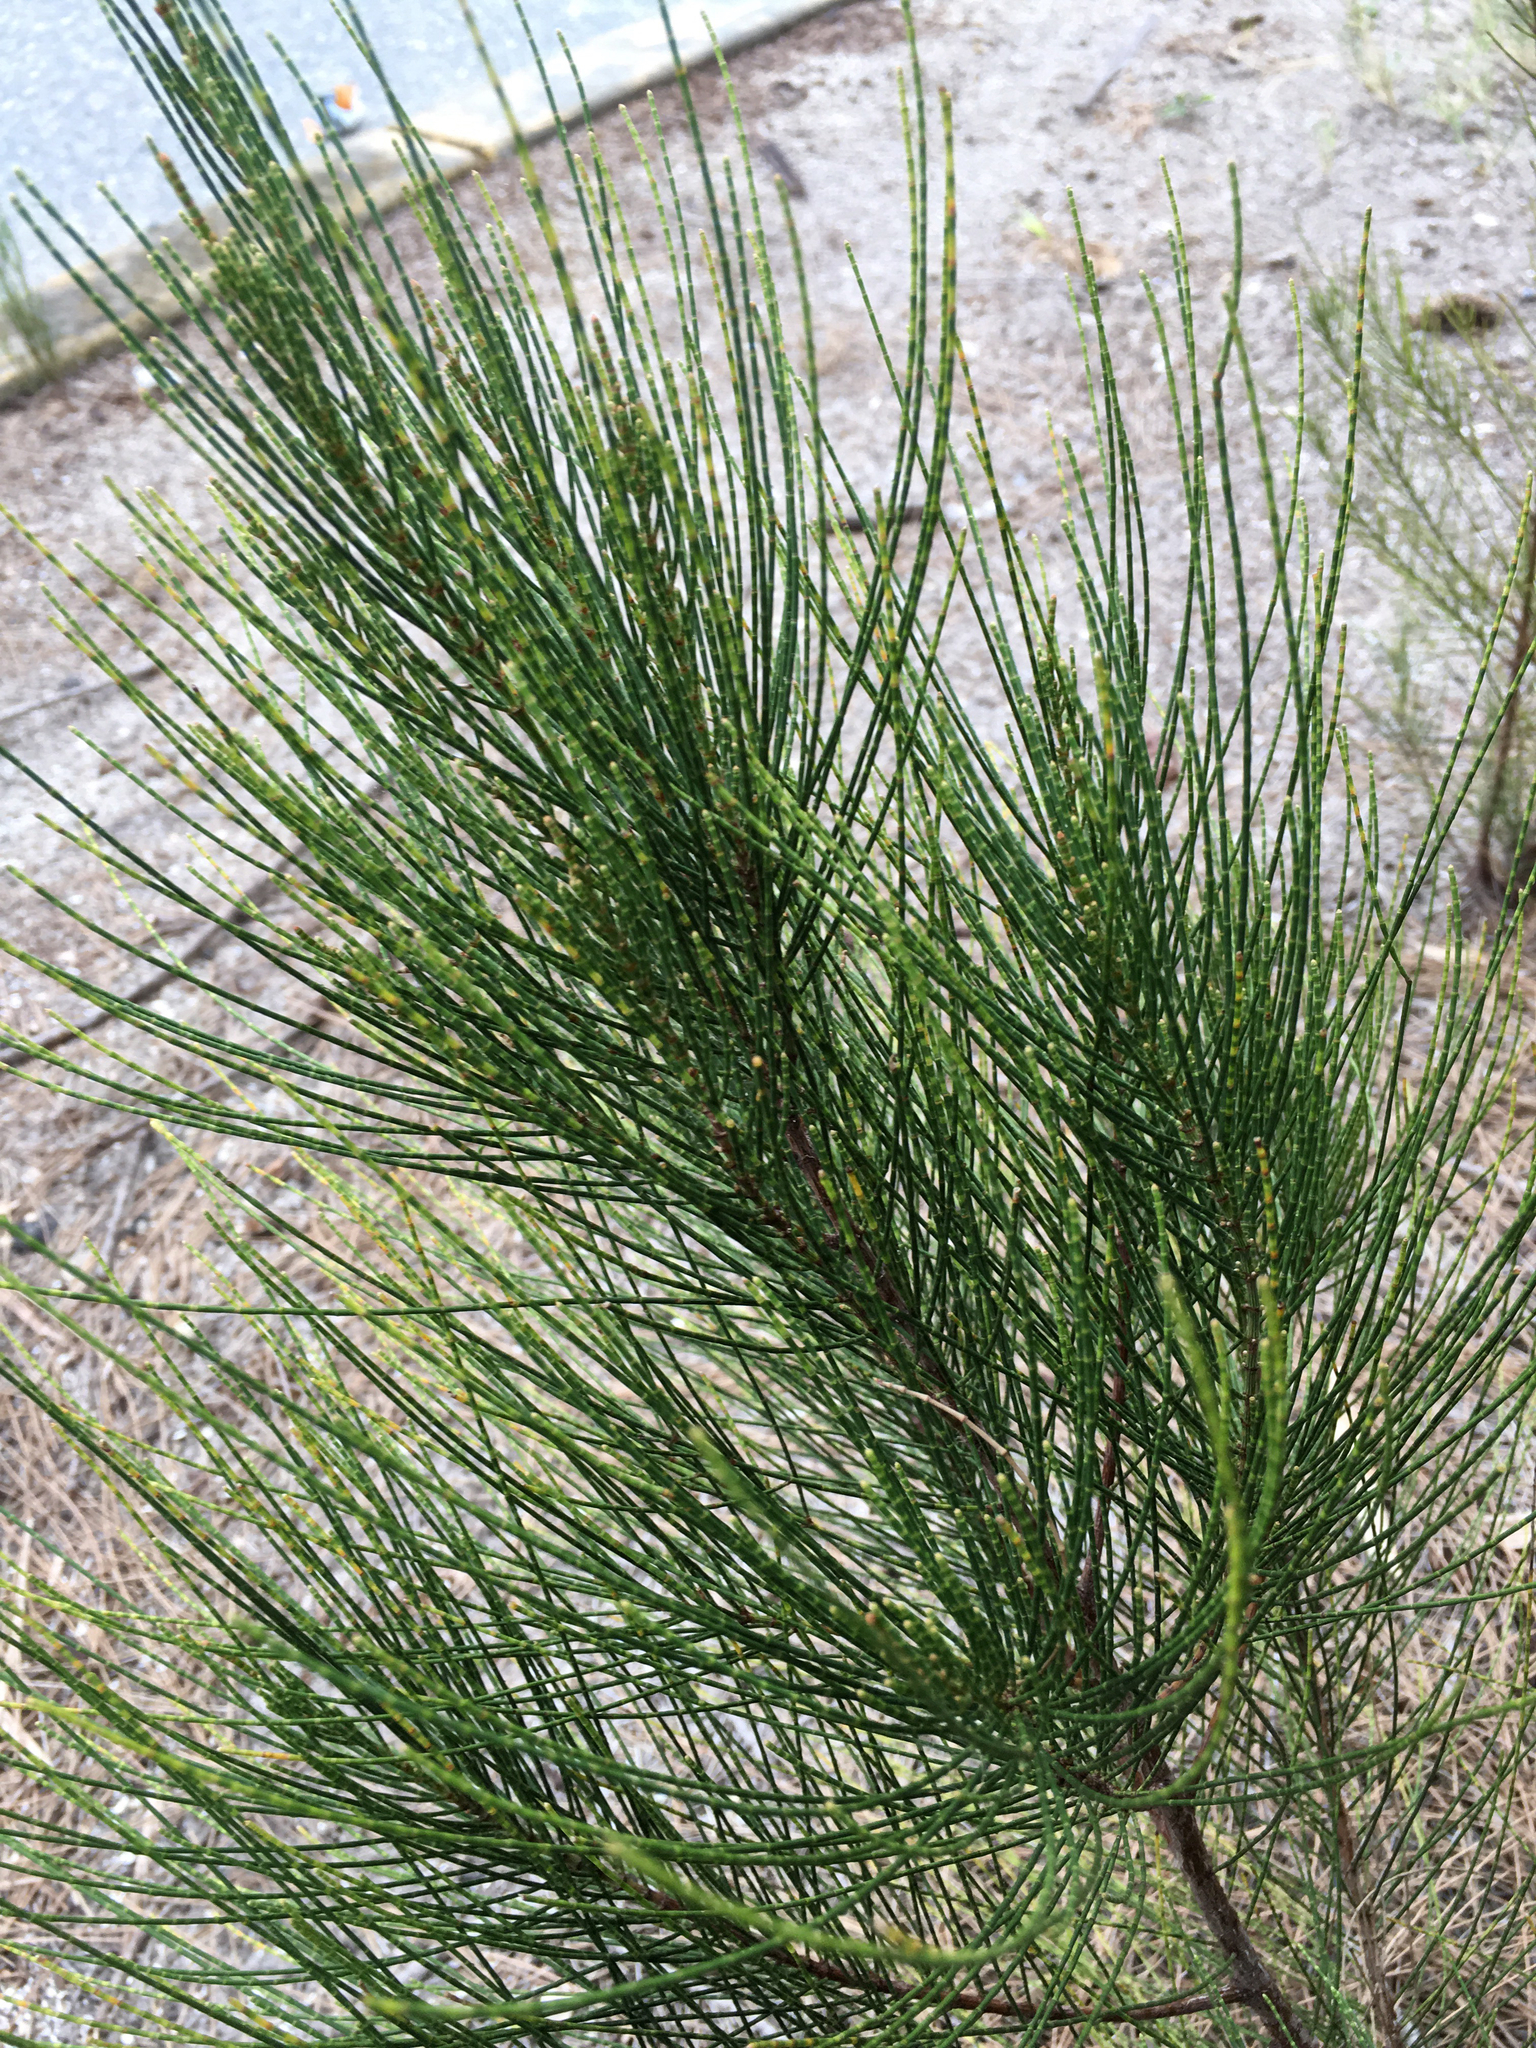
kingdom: Plantae
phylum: Tracheophyta
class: Magnoliopsida
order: Fagales
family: Casuarinaceae
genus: Casuarina
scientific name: Casuarina equisetifolia
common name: Beach sheoak
